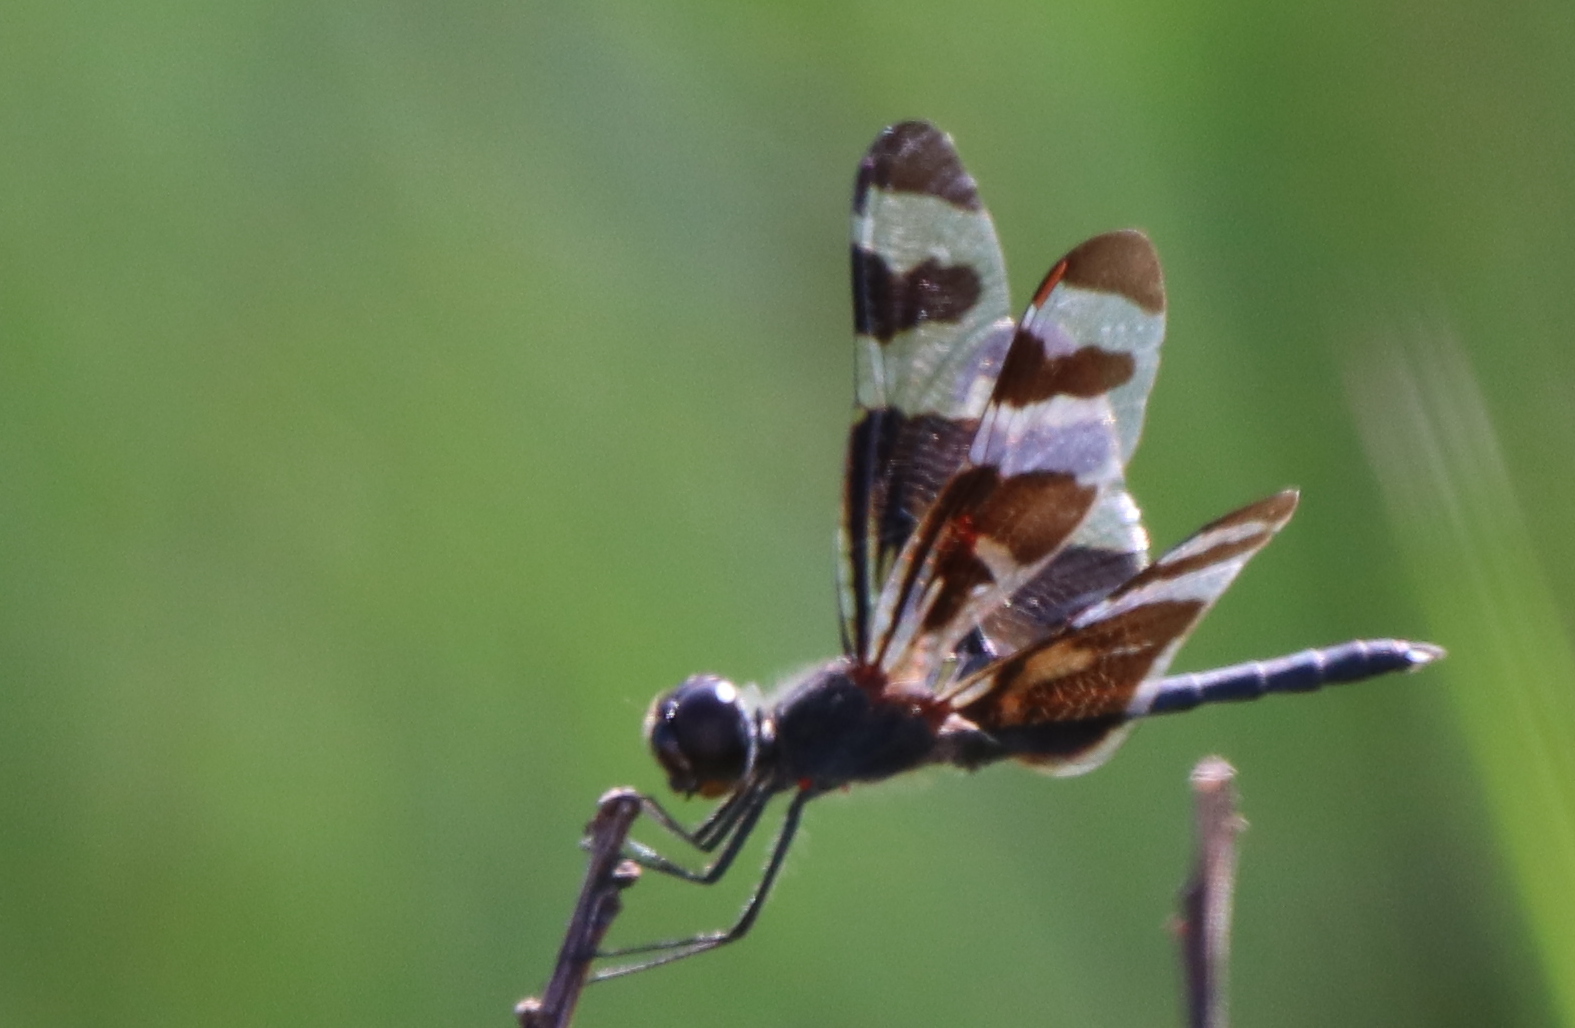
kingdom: Animalia
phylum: Arthropoda
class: Insecta
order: Odonata
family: Libellulidae
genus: Celithemis
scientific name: Celithemis fasciata
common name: Banded pennant
